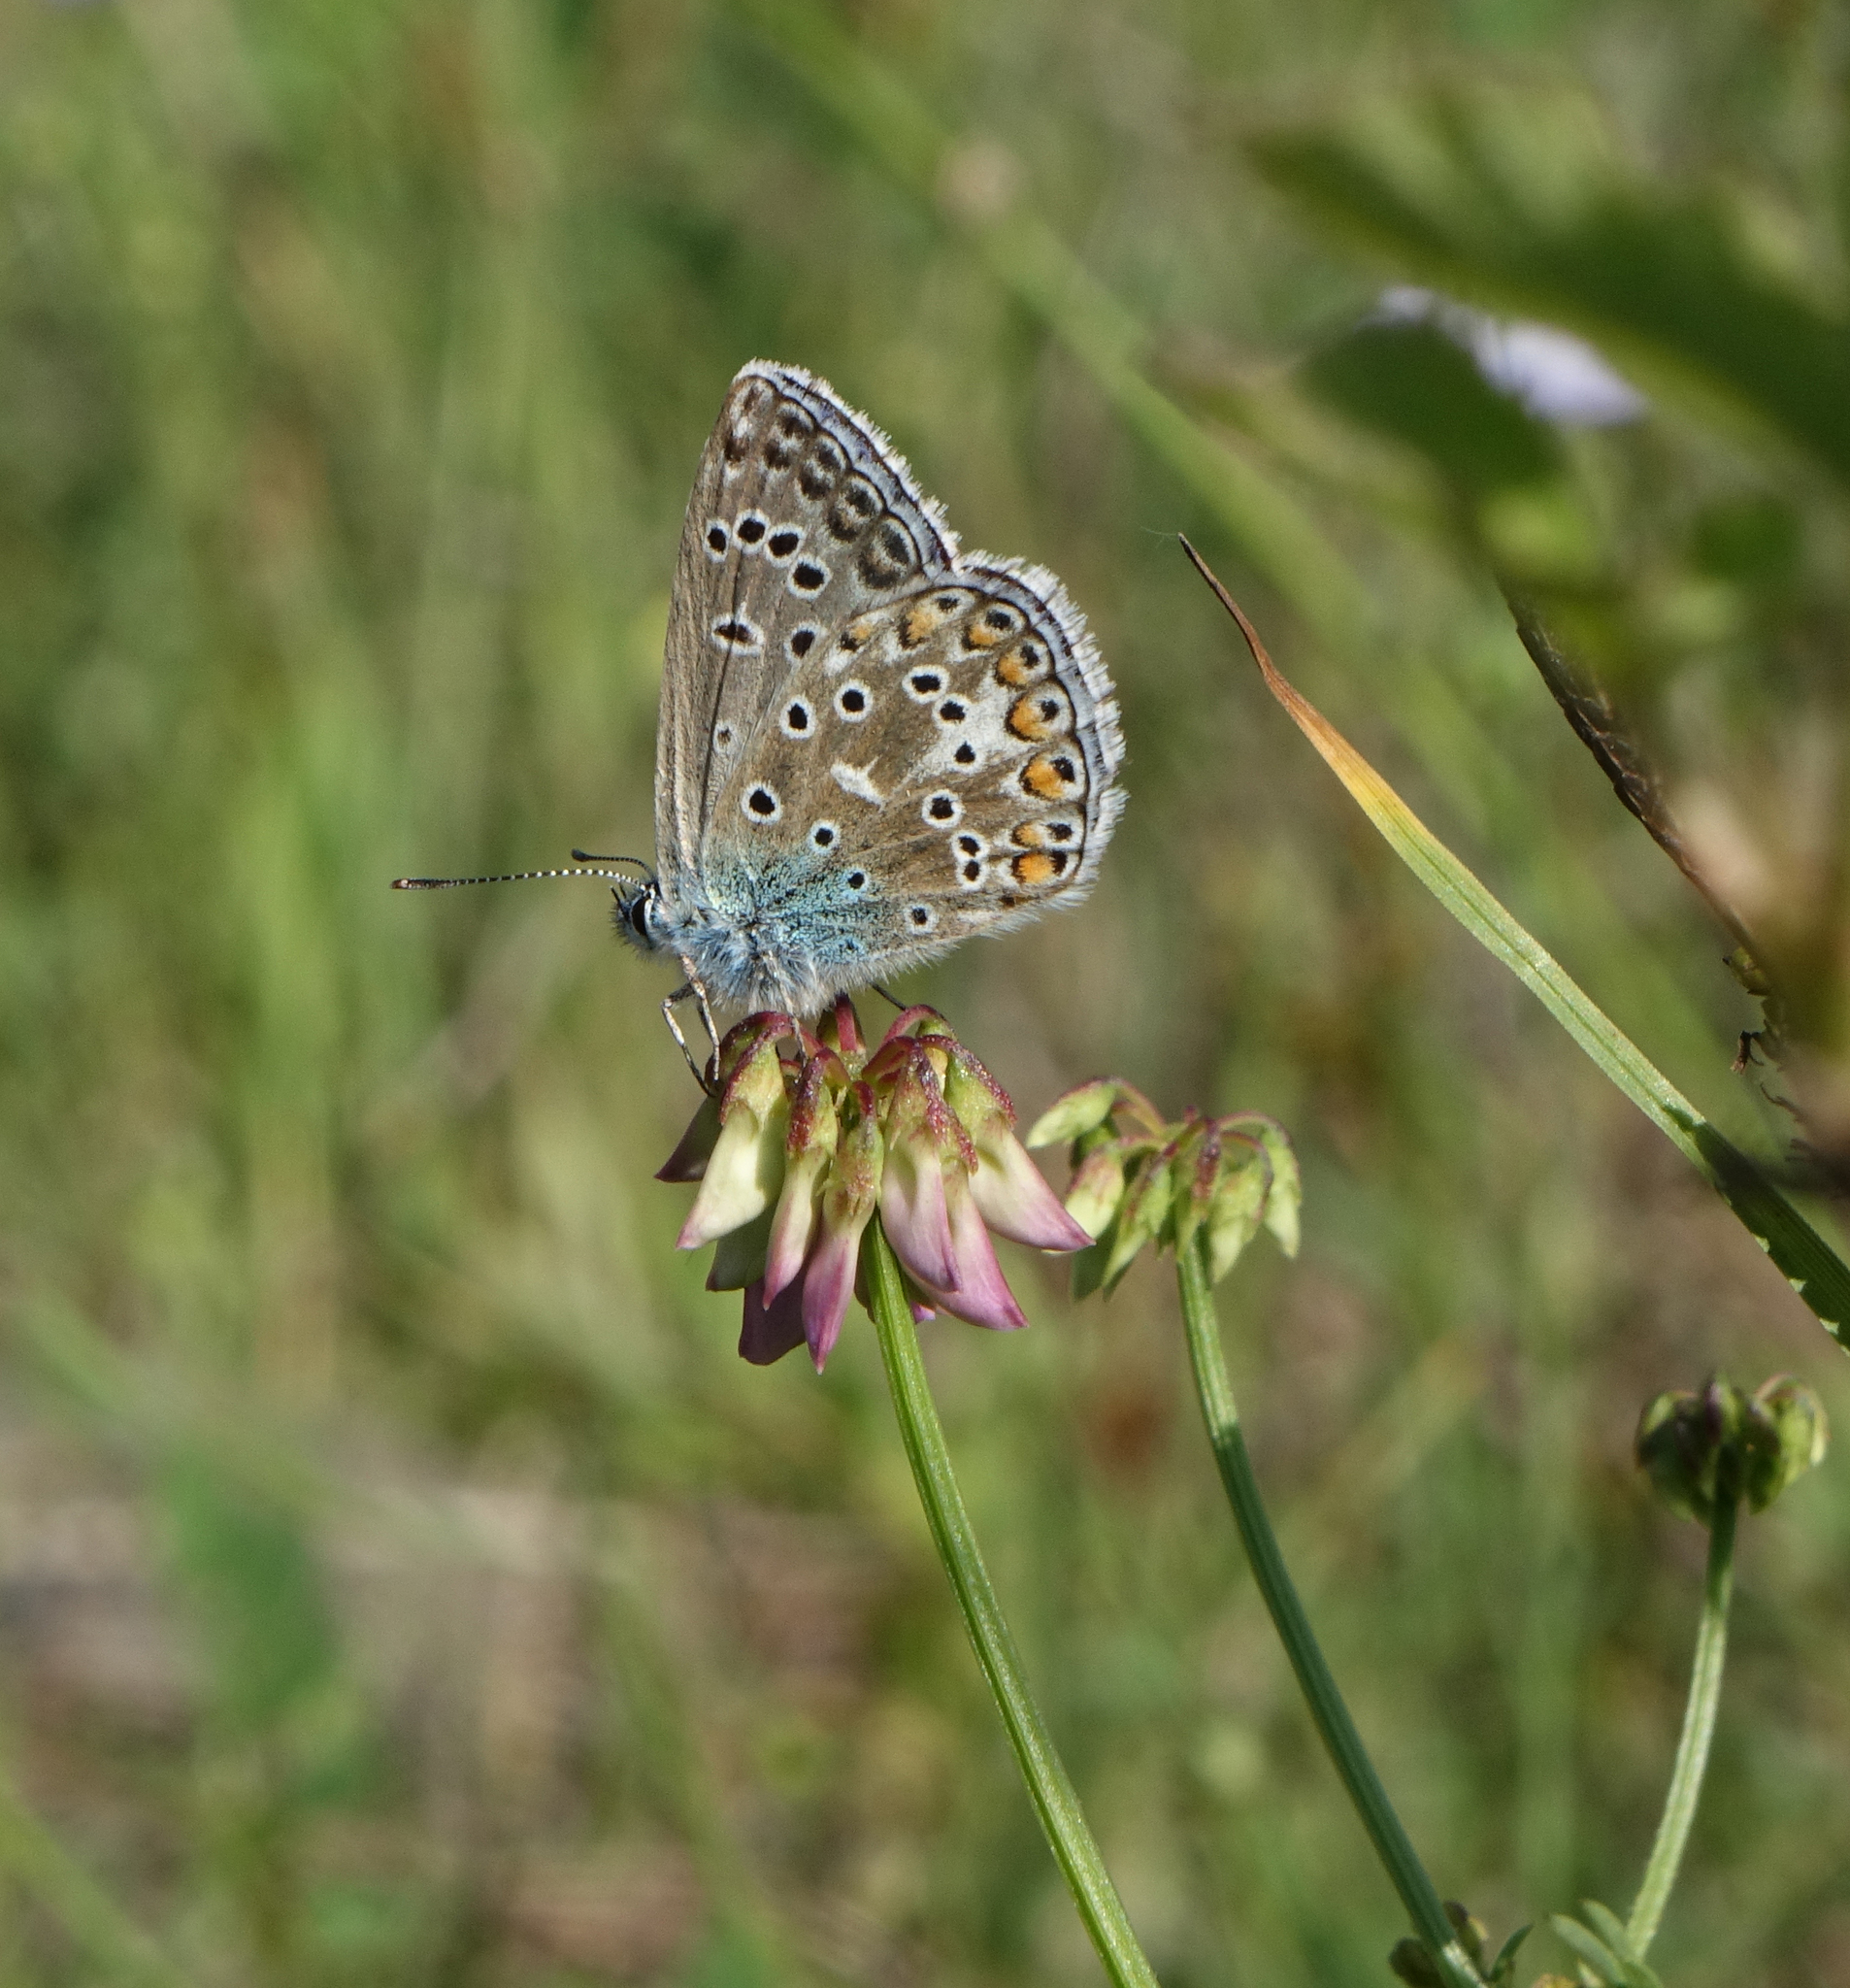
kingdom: Animalia
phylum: Arthropoda
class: Insecta
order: Lepidoptera
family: Lycaenidae
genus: Lysandra
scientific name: Lysandra bellargus
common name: Adonis blue
